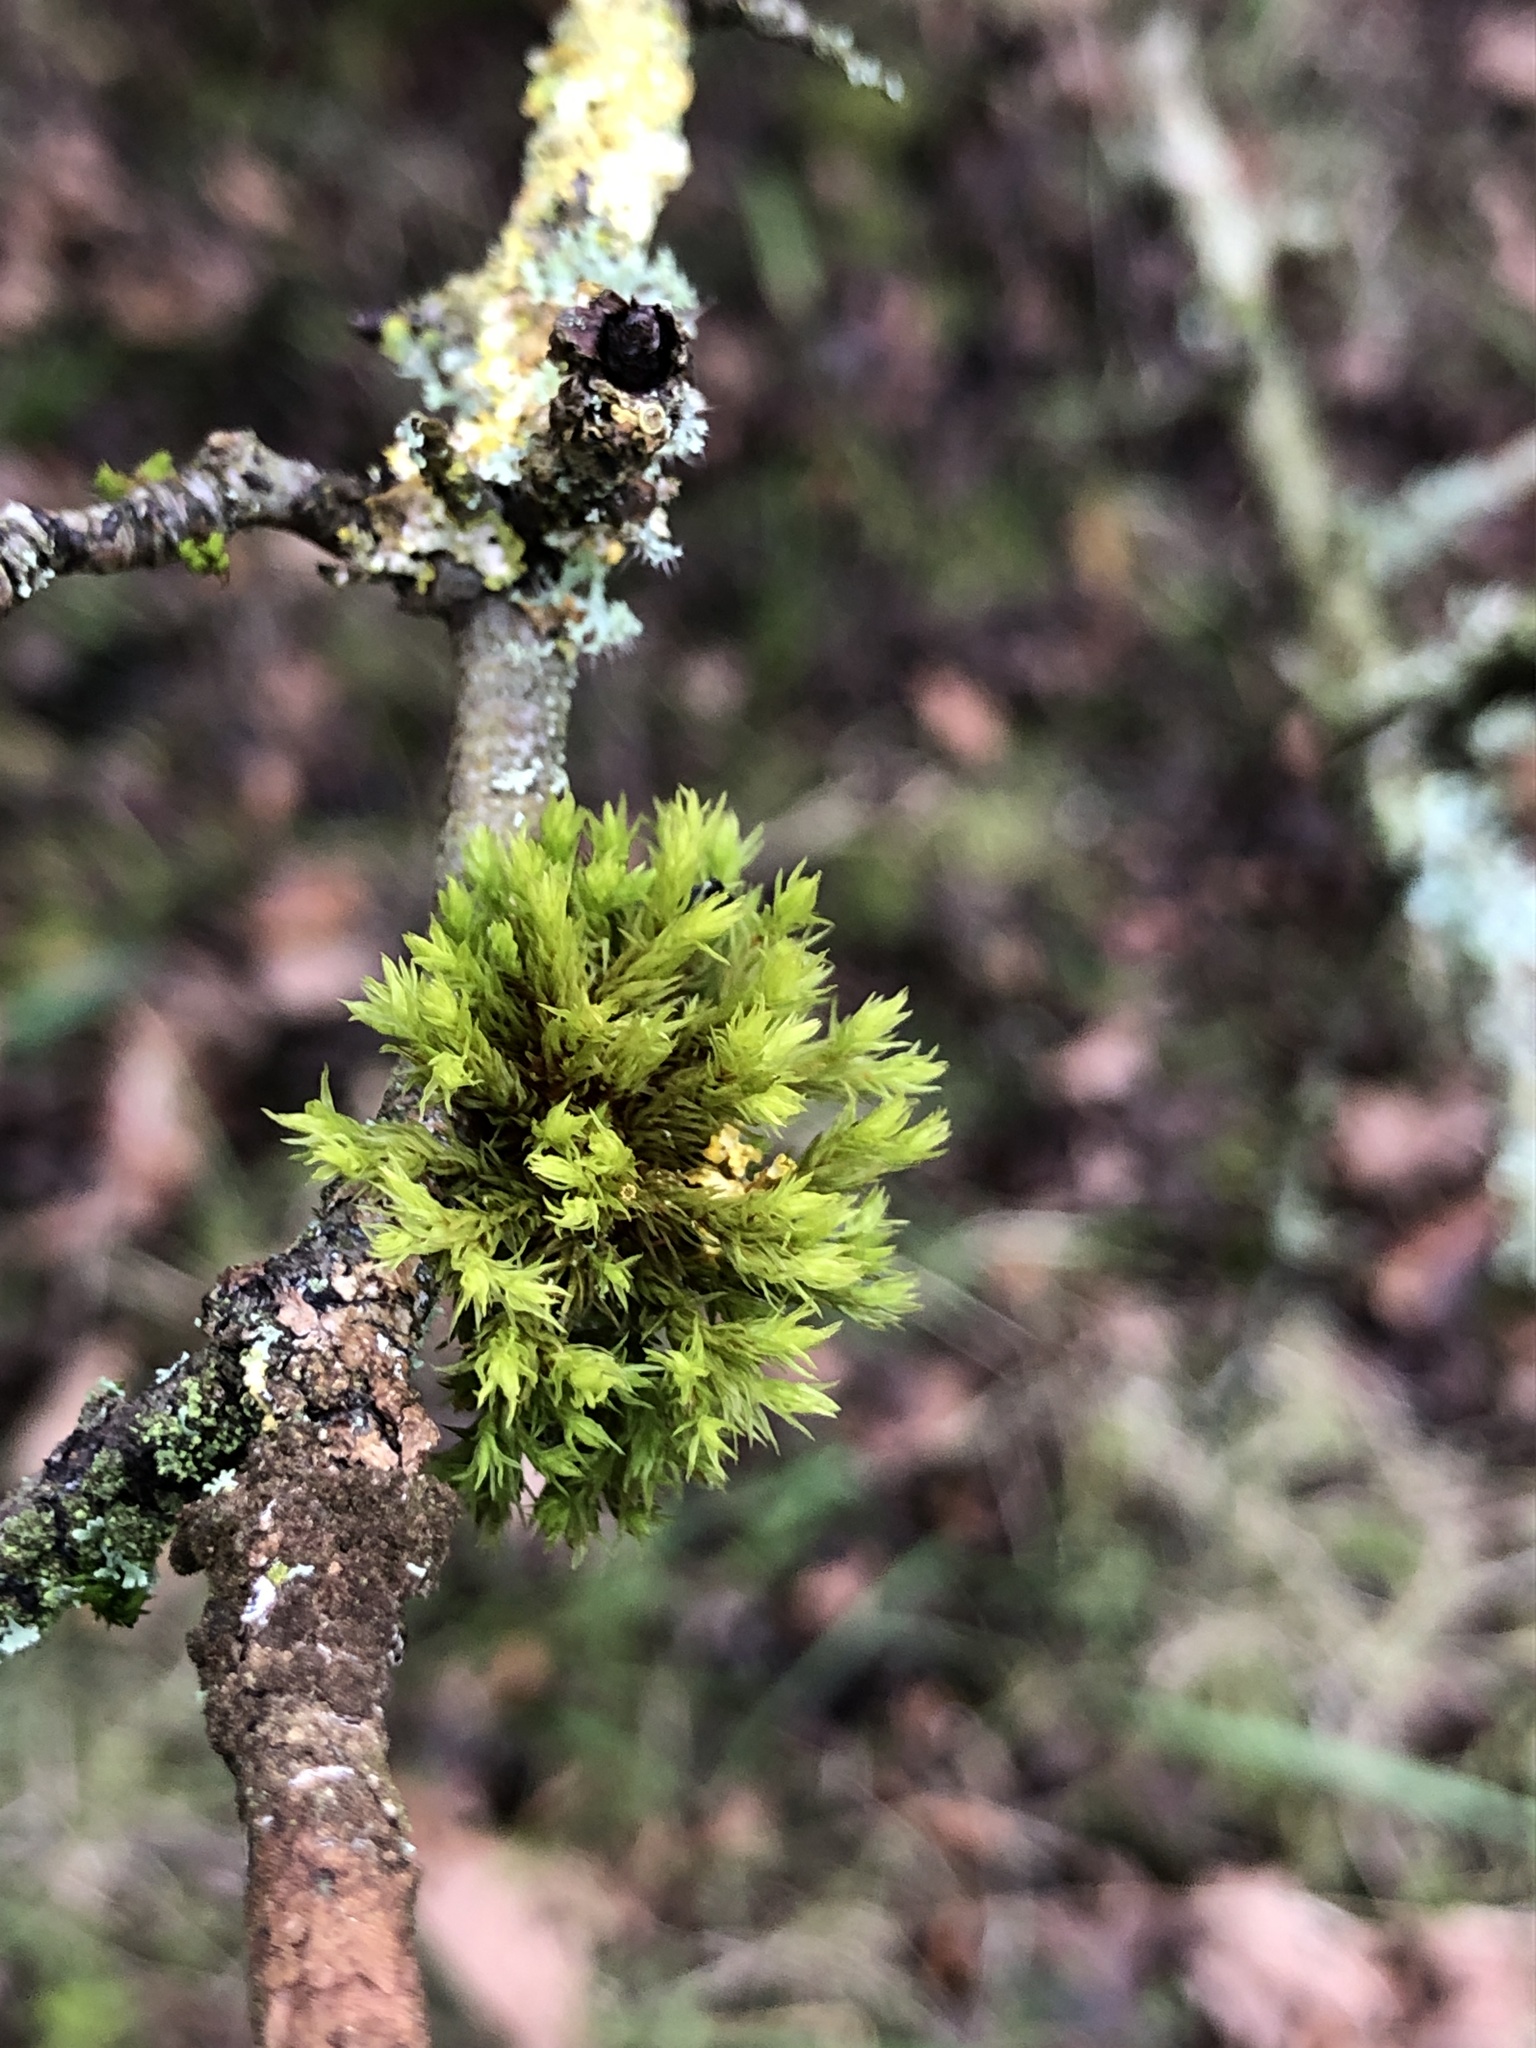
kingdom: Plantae
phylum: Bryophyta
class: Bryopsida
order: Orthotrichales
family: Orthotrichaceae
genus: Lewinskya
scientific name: Lewinskya affinis
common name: Wood bristle-moss
